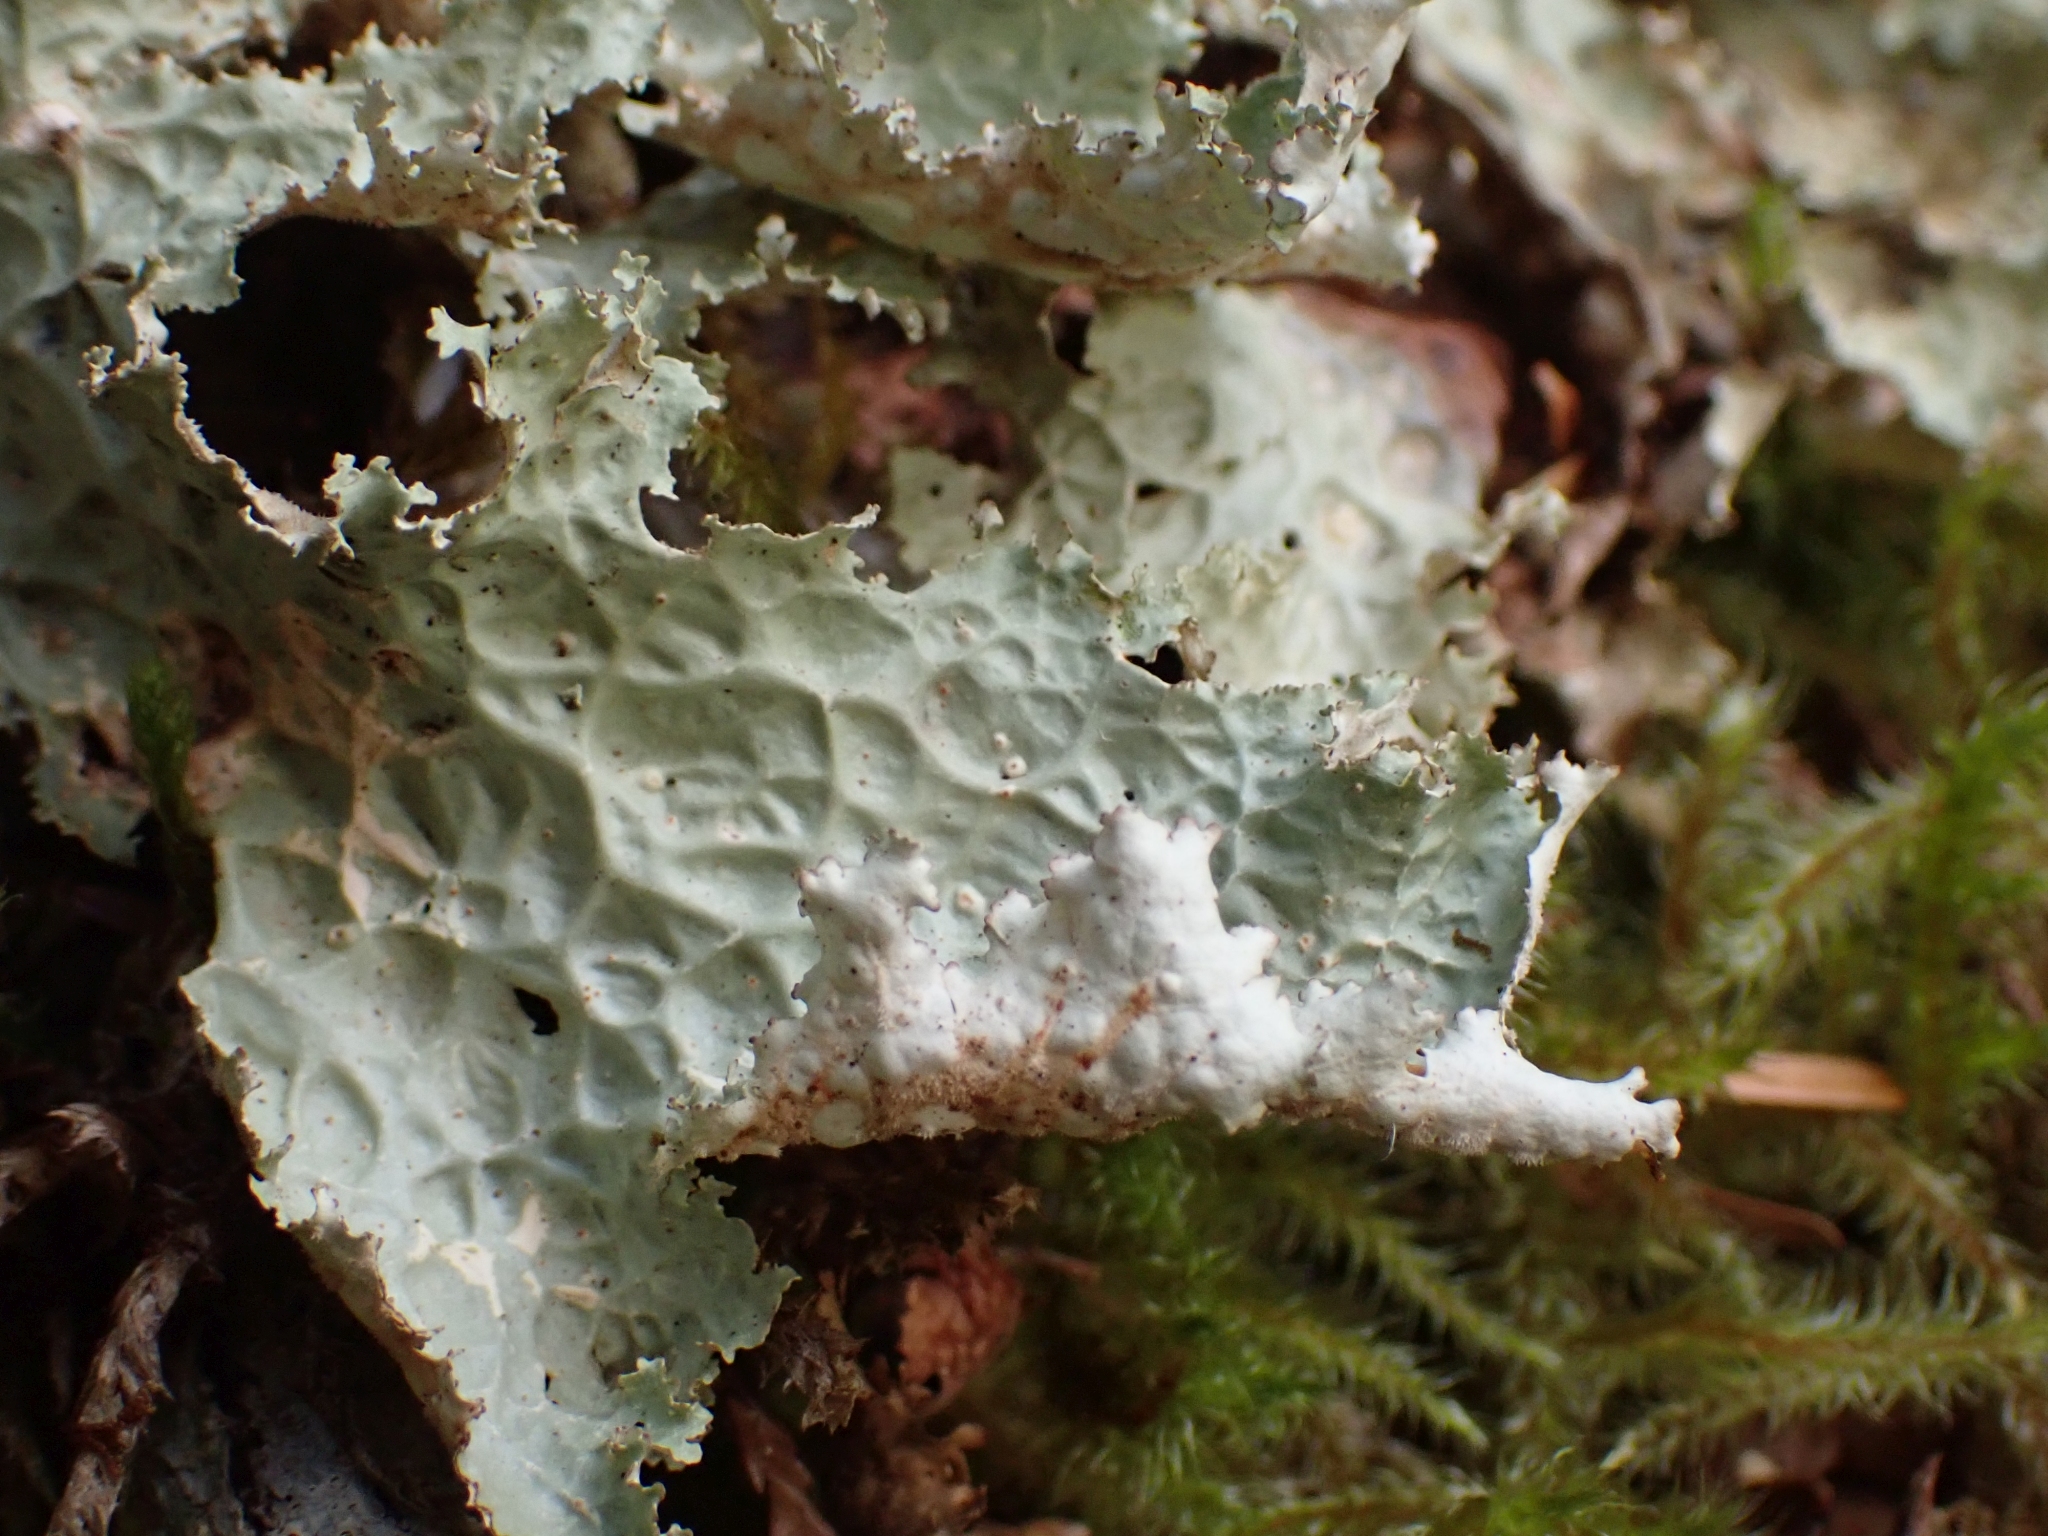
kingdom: Fungi
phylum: Ascomycota
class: Lecanoromycetes
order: Peltigerales
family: Lobariaceae
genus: Lobaria
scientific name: Lobaria oregana
